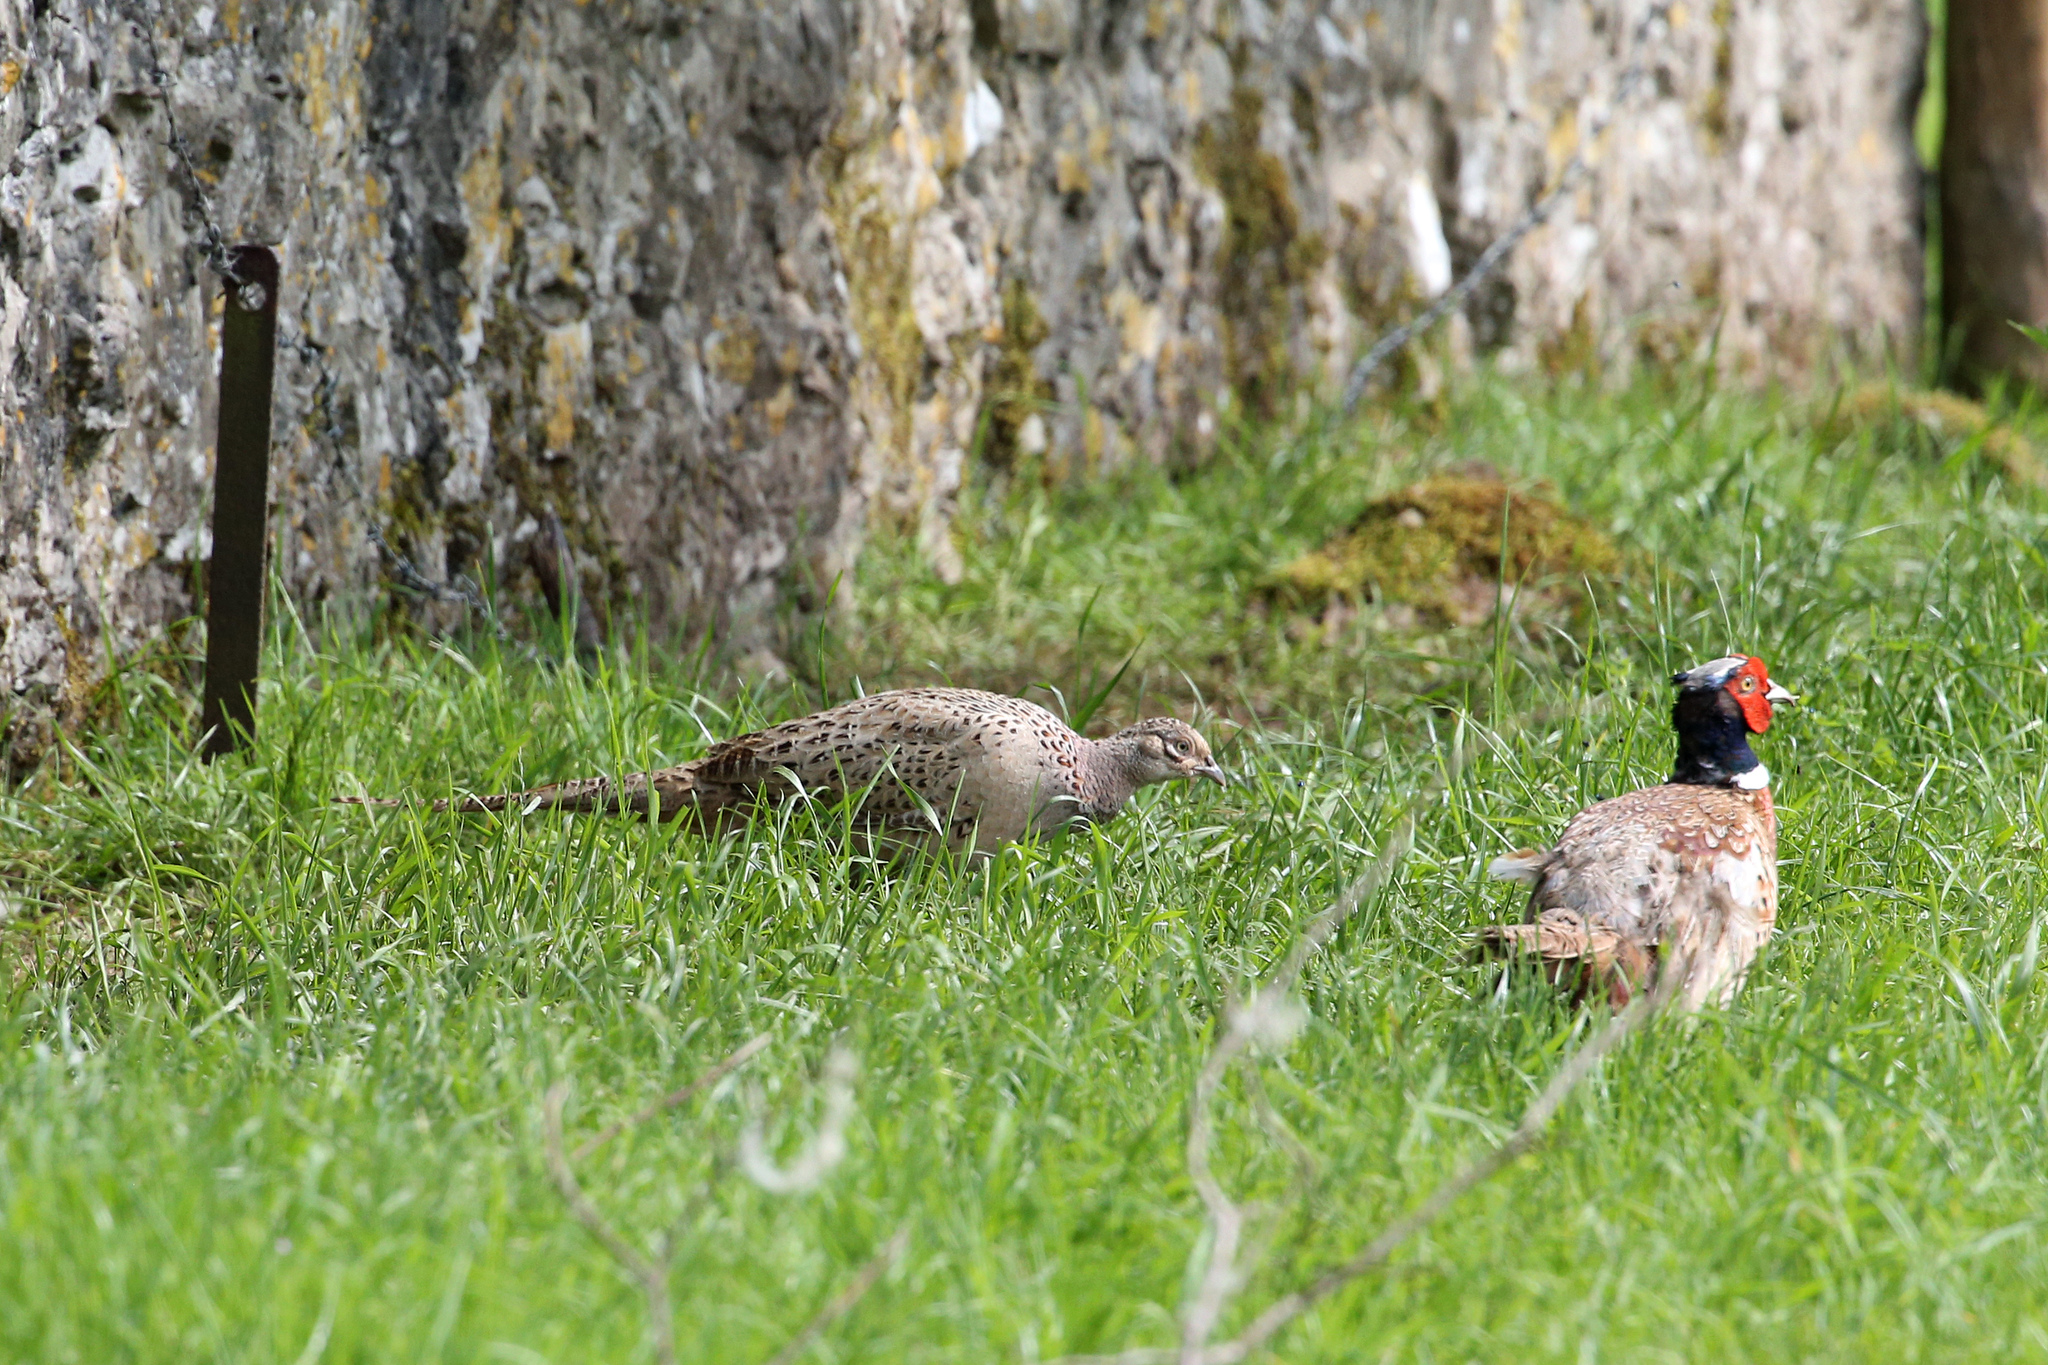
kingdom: Animalia
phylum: Chordata
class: Aves
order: Galliformes
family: Phasianidae
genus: Phasianus
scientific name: Phasianus colchicus
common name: Common pheasant
